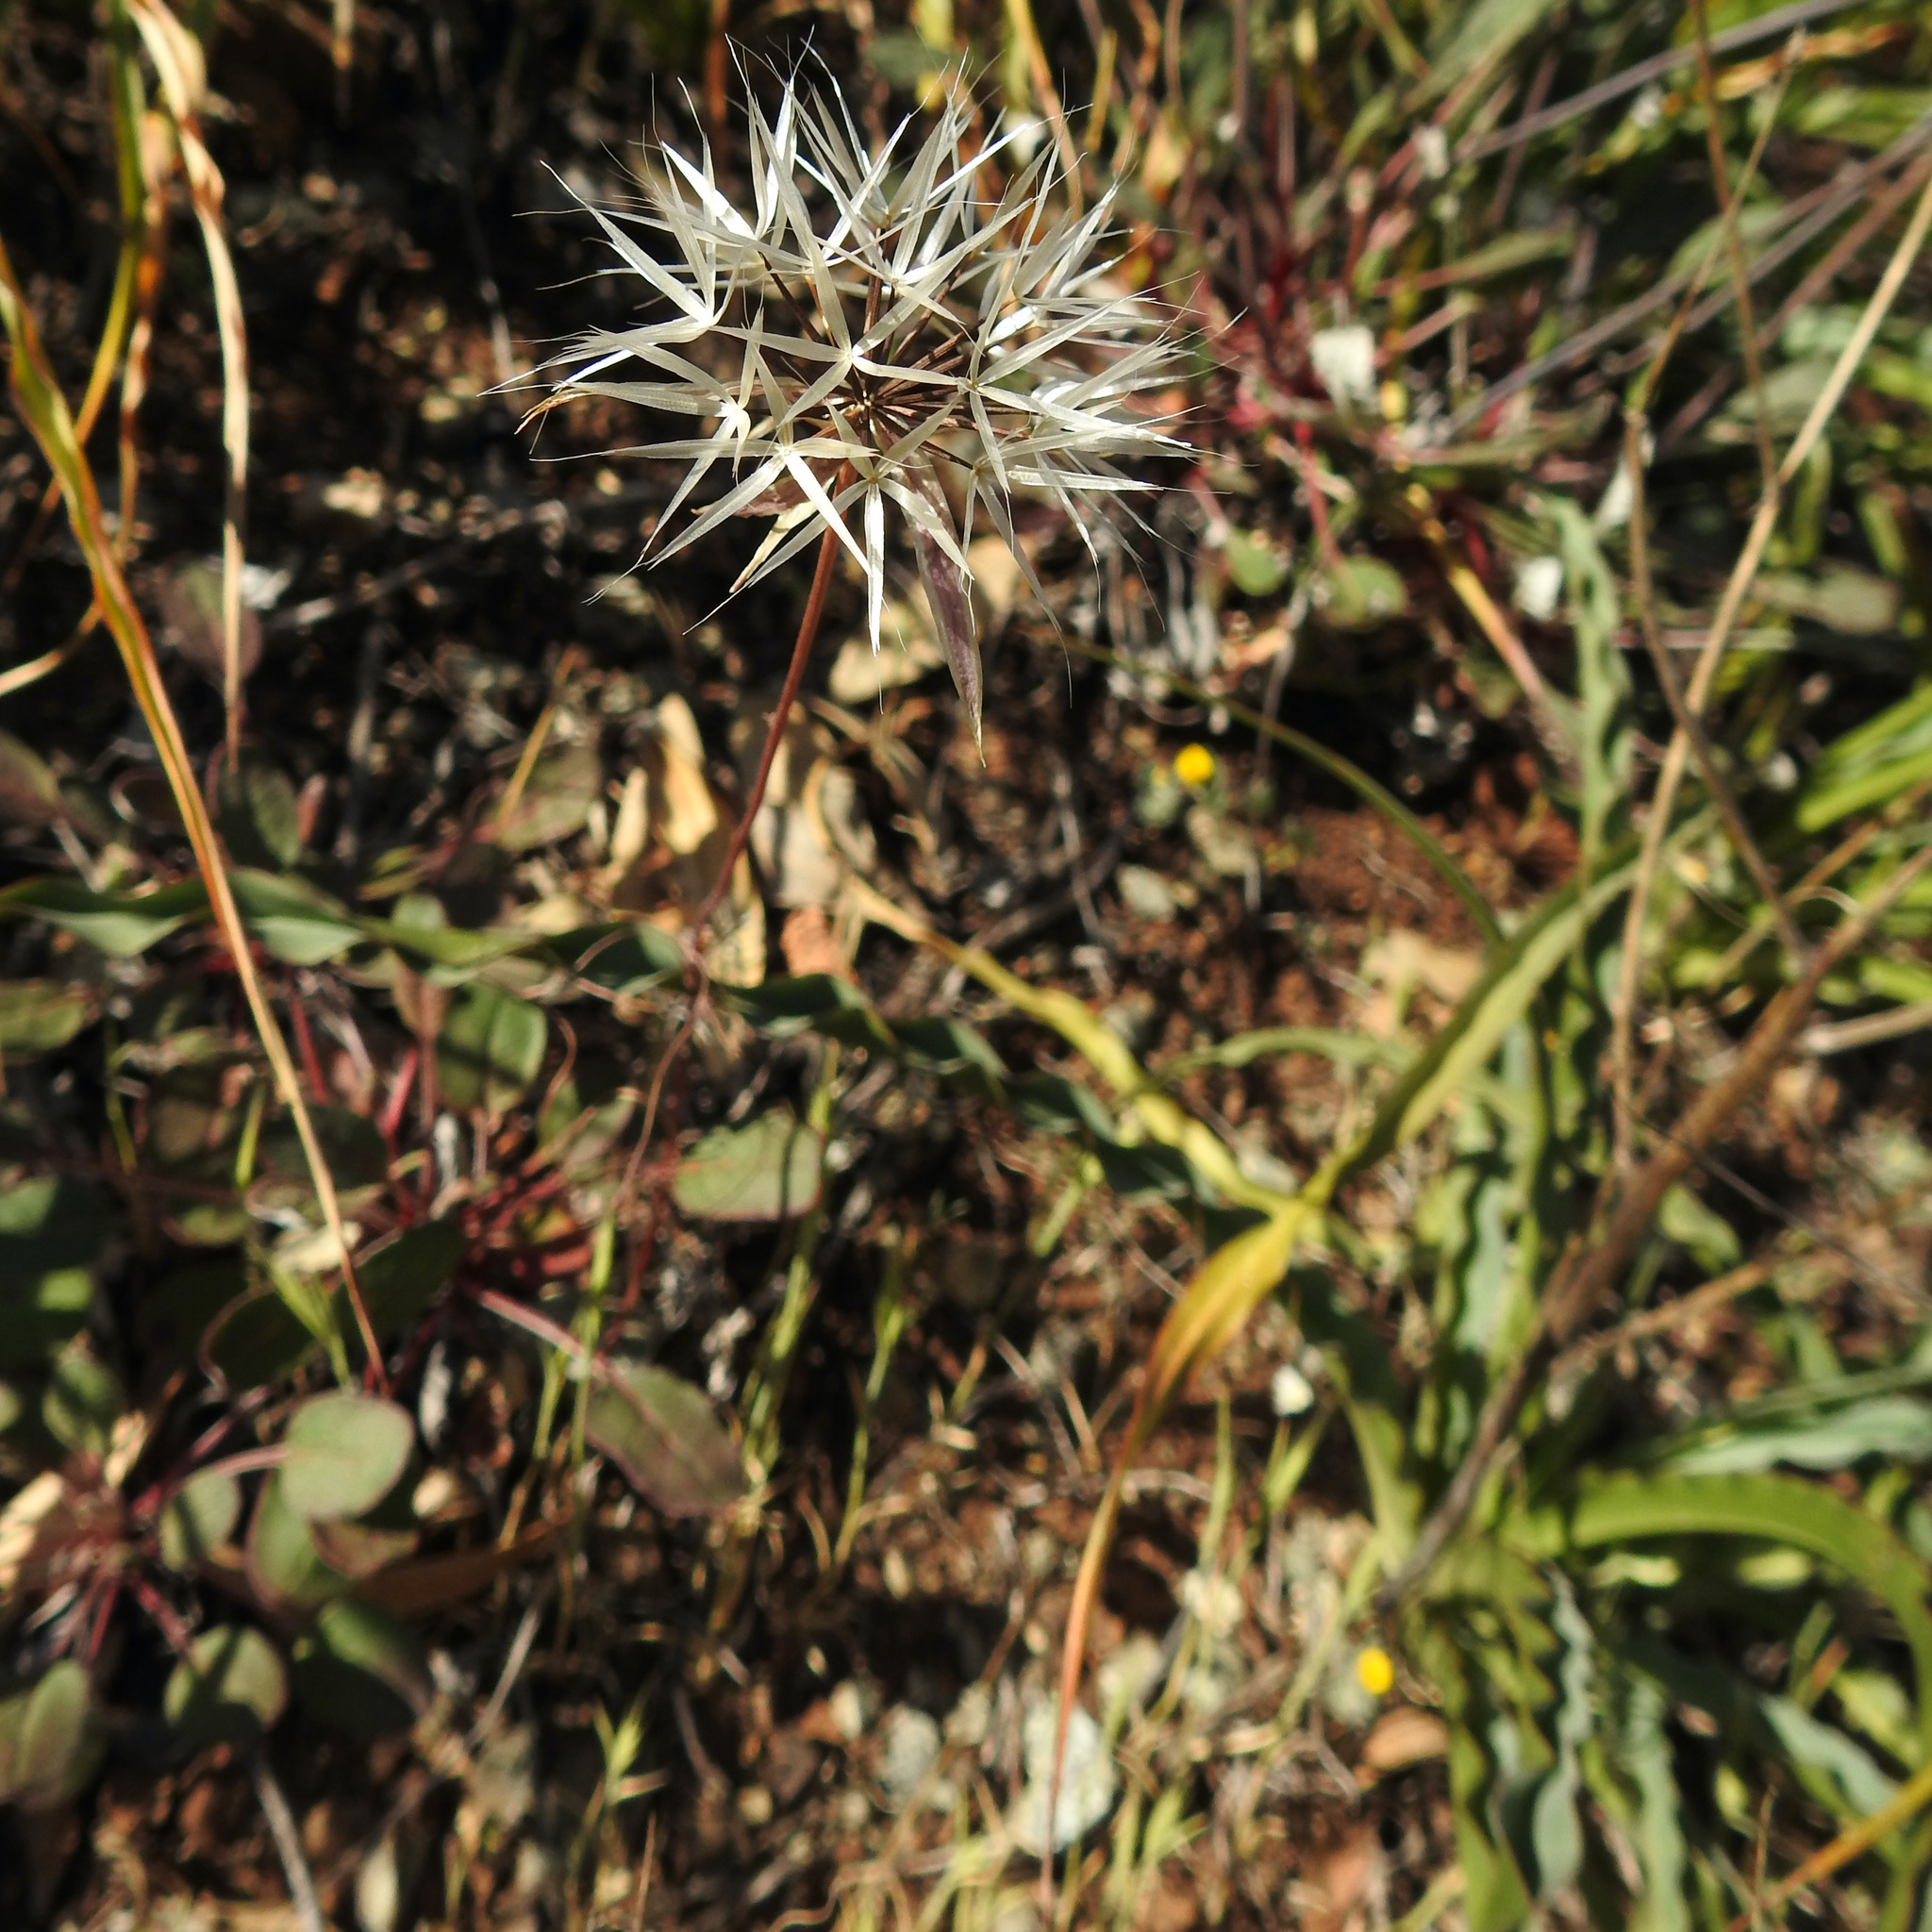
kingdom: Plantae
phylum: Tracheophyta
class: Magnoliopsida
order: Asterales
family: Asteraceae
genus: Microseris
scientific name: Microseris lindleyi
